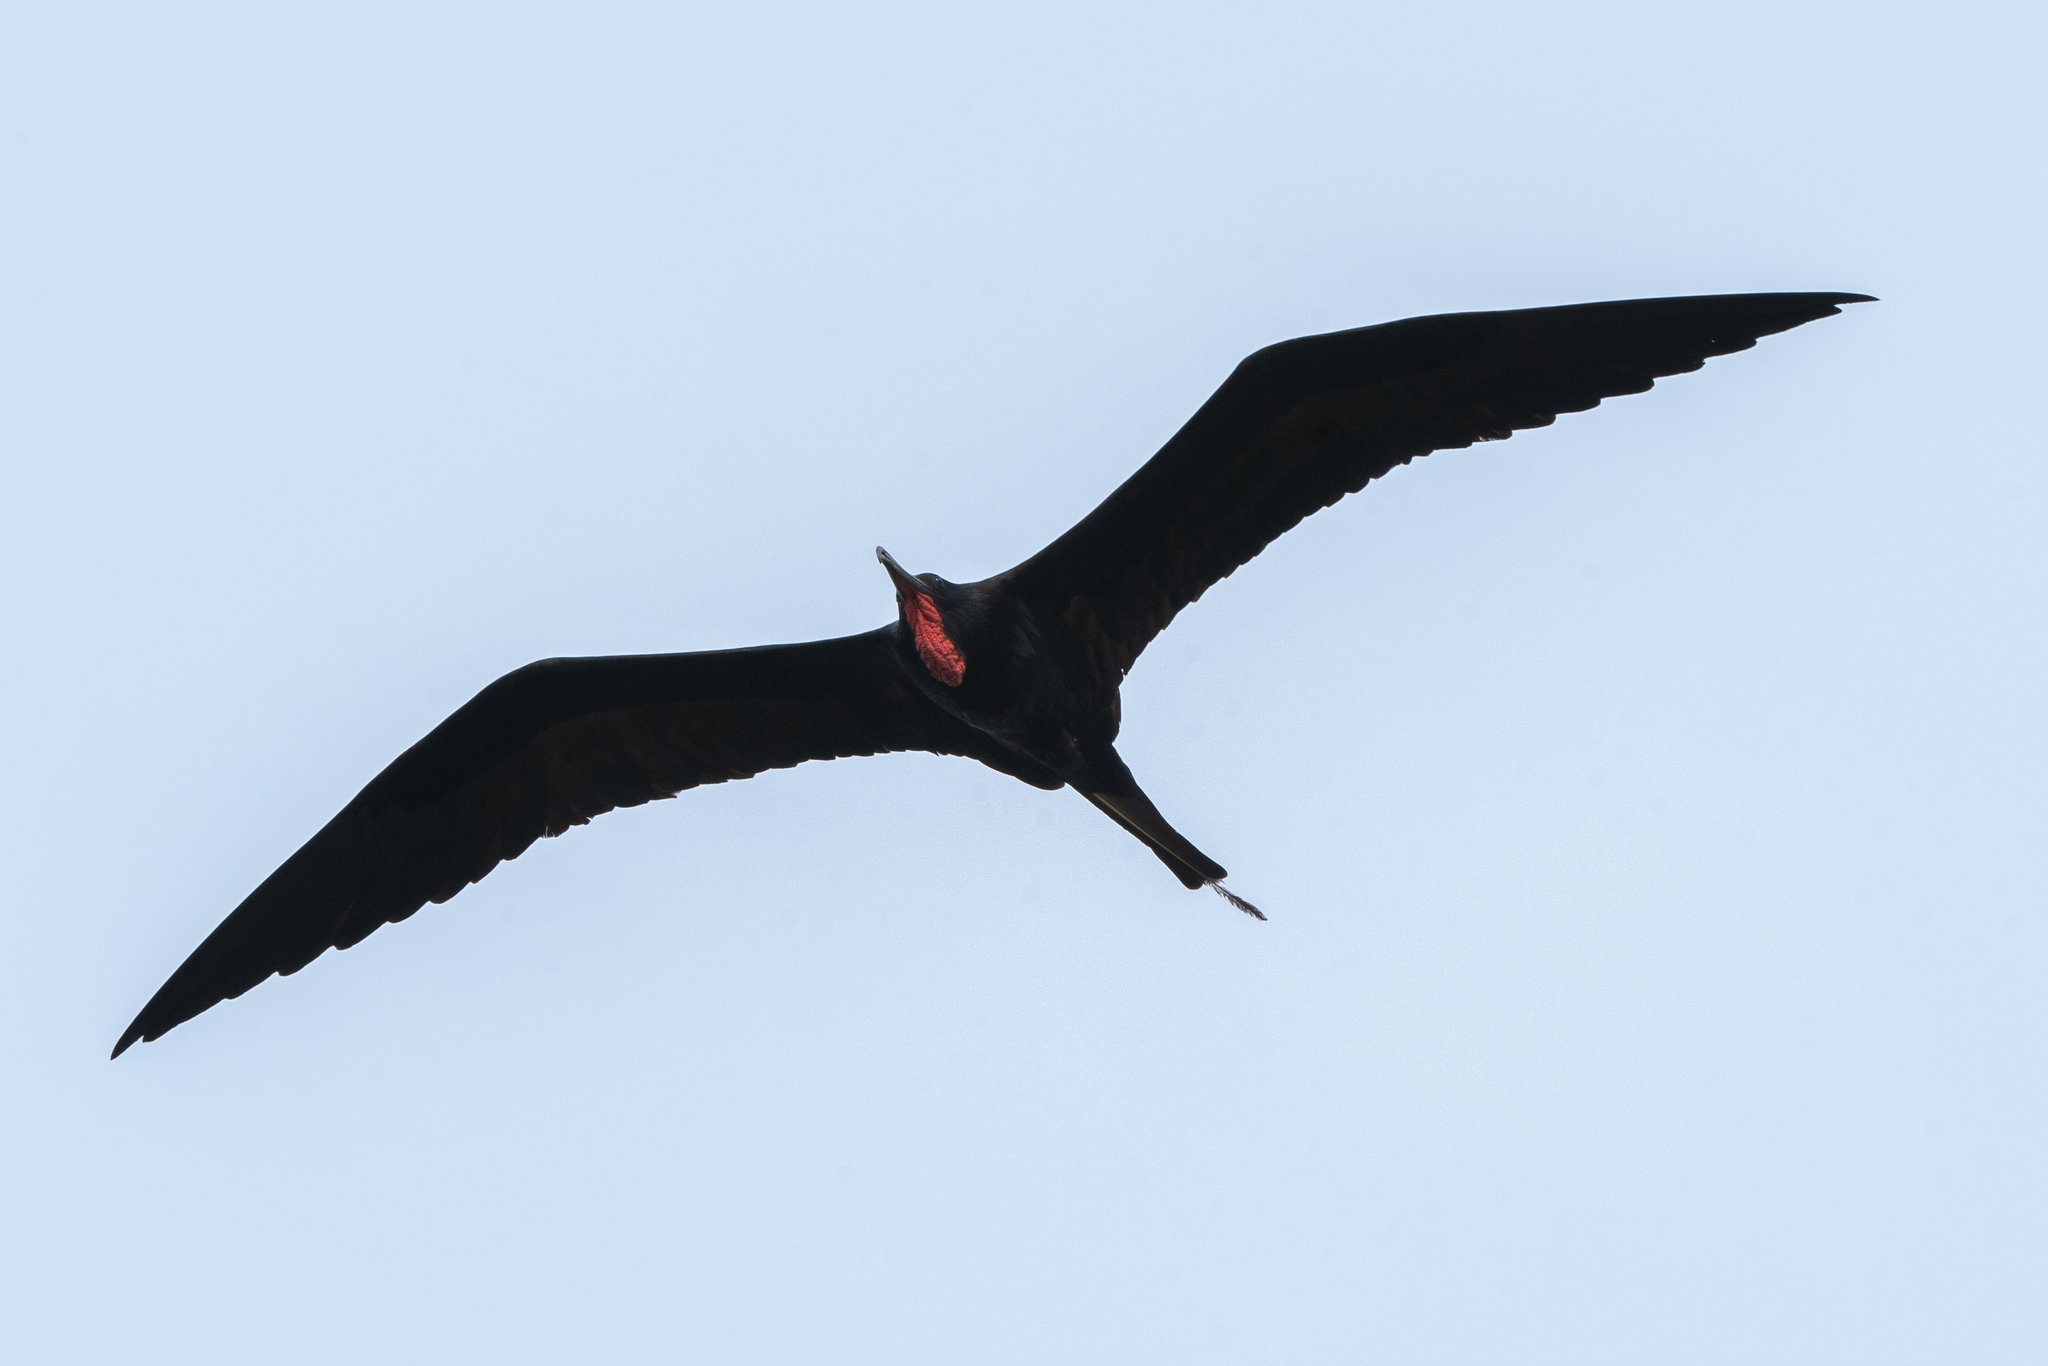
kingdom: Animalia
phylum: Chordata
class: Aves
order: Suliformes
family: Fregatidae
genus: Fregata
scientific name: Fregata magnificens
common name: Magnificent frigatebird
